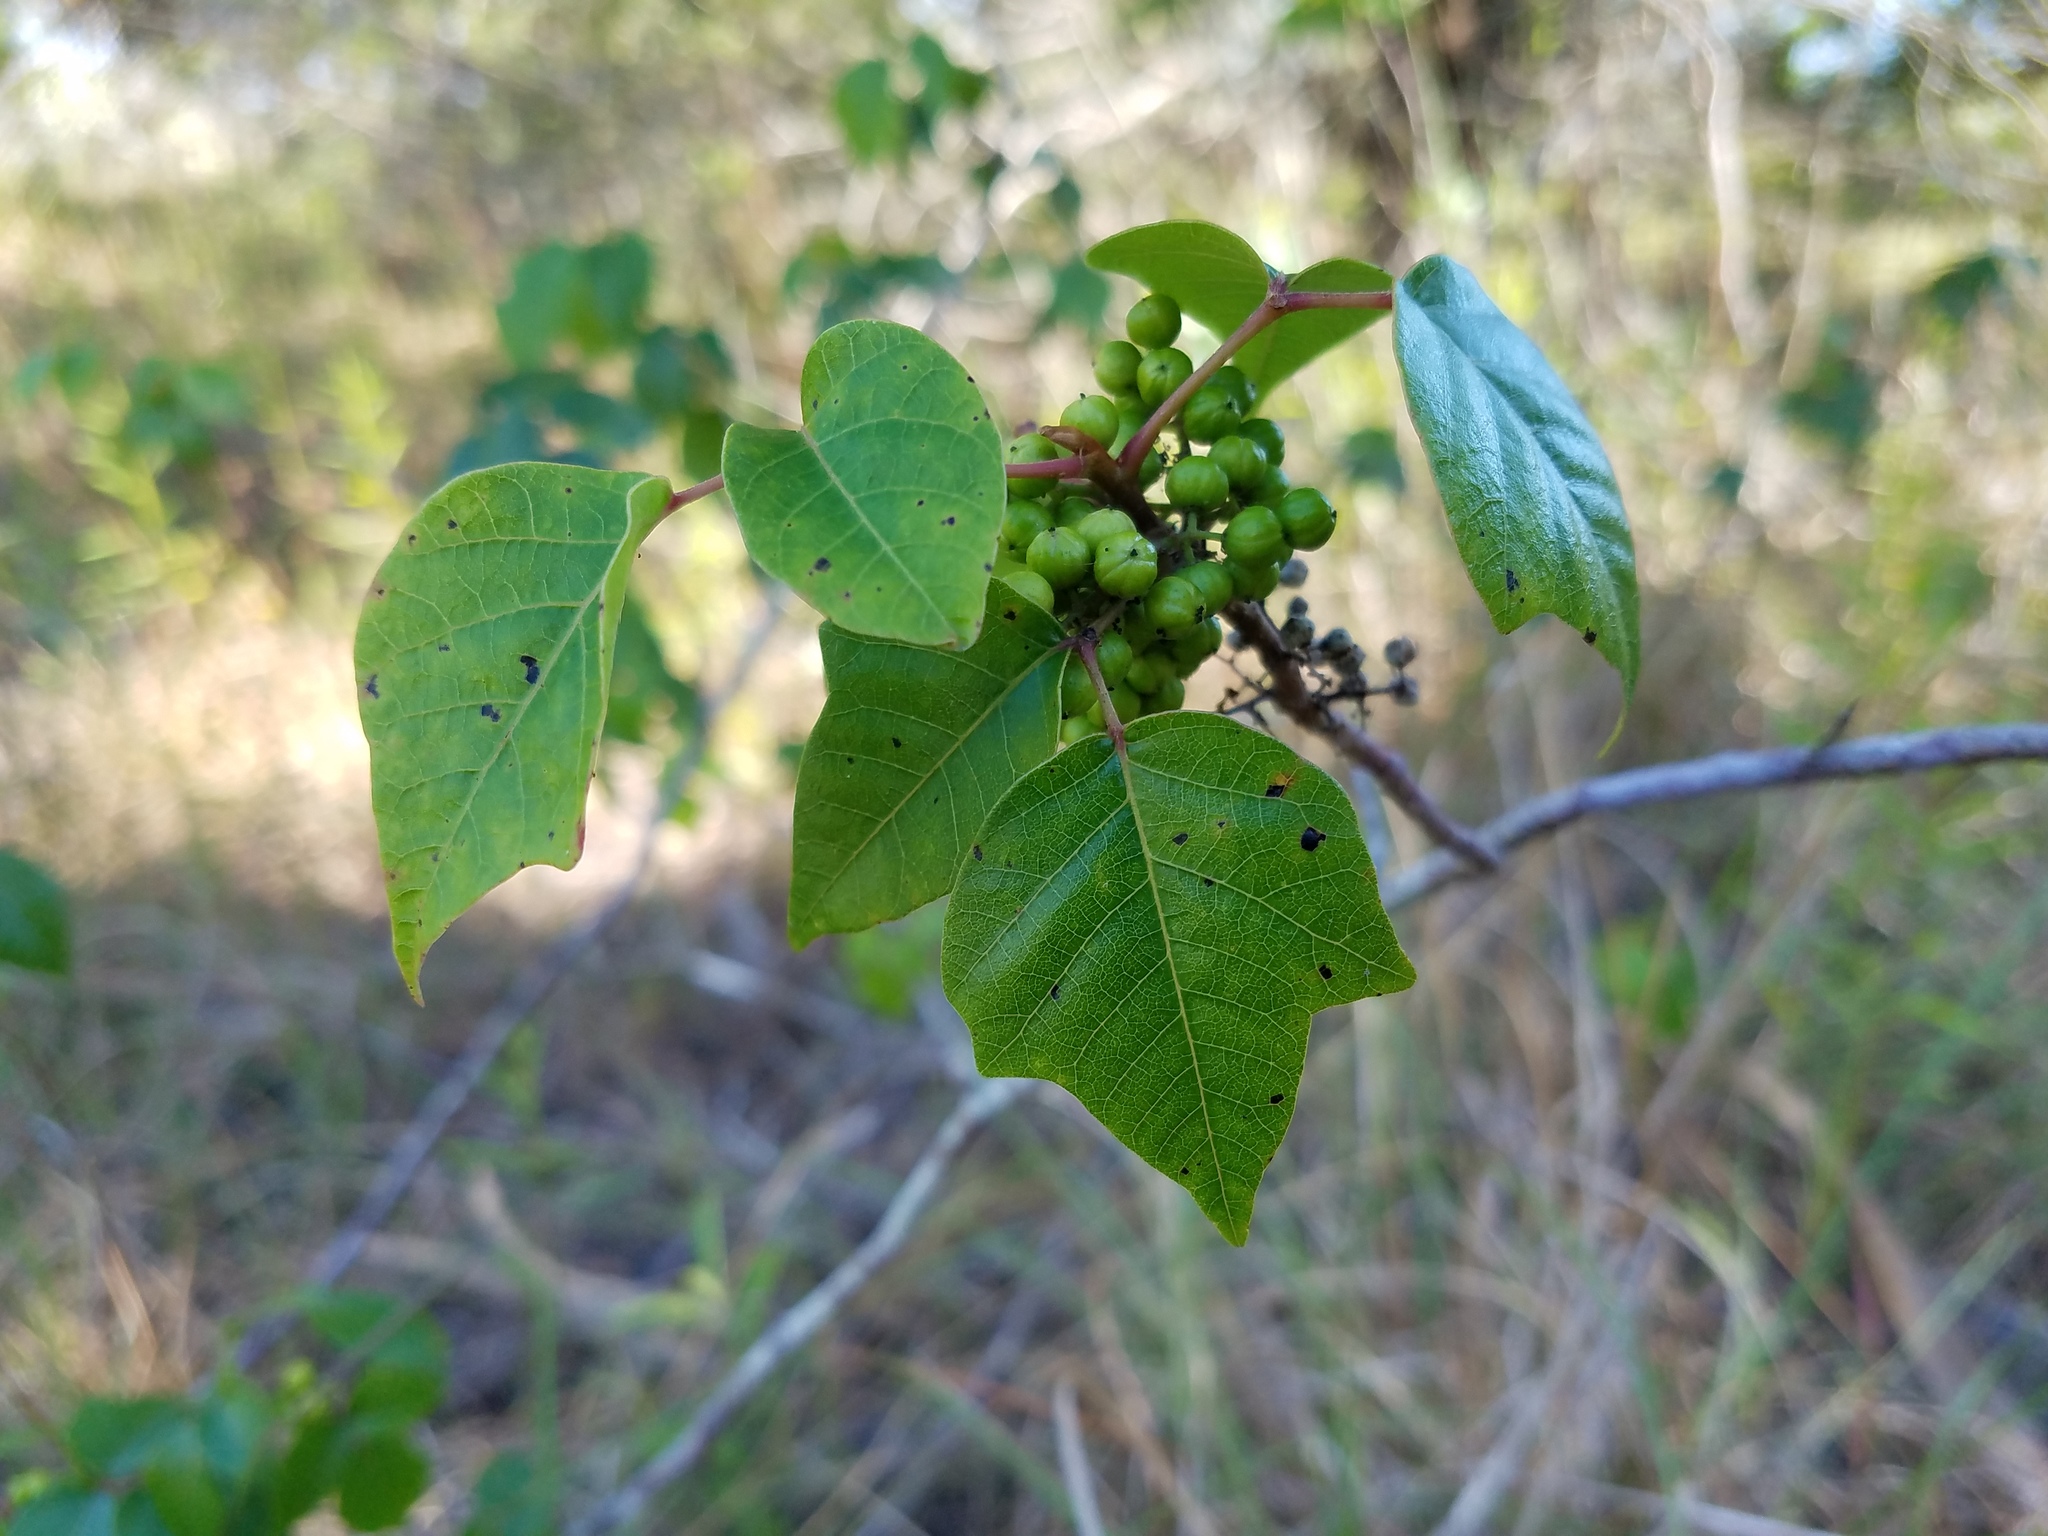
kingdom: Plantae
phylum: Tracheophyta
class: Magnoliopsida
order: Sapindales
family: Anacardiaceae
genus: Toxicodendron
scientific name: Toxicodendron radicans
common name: Poison ivy
